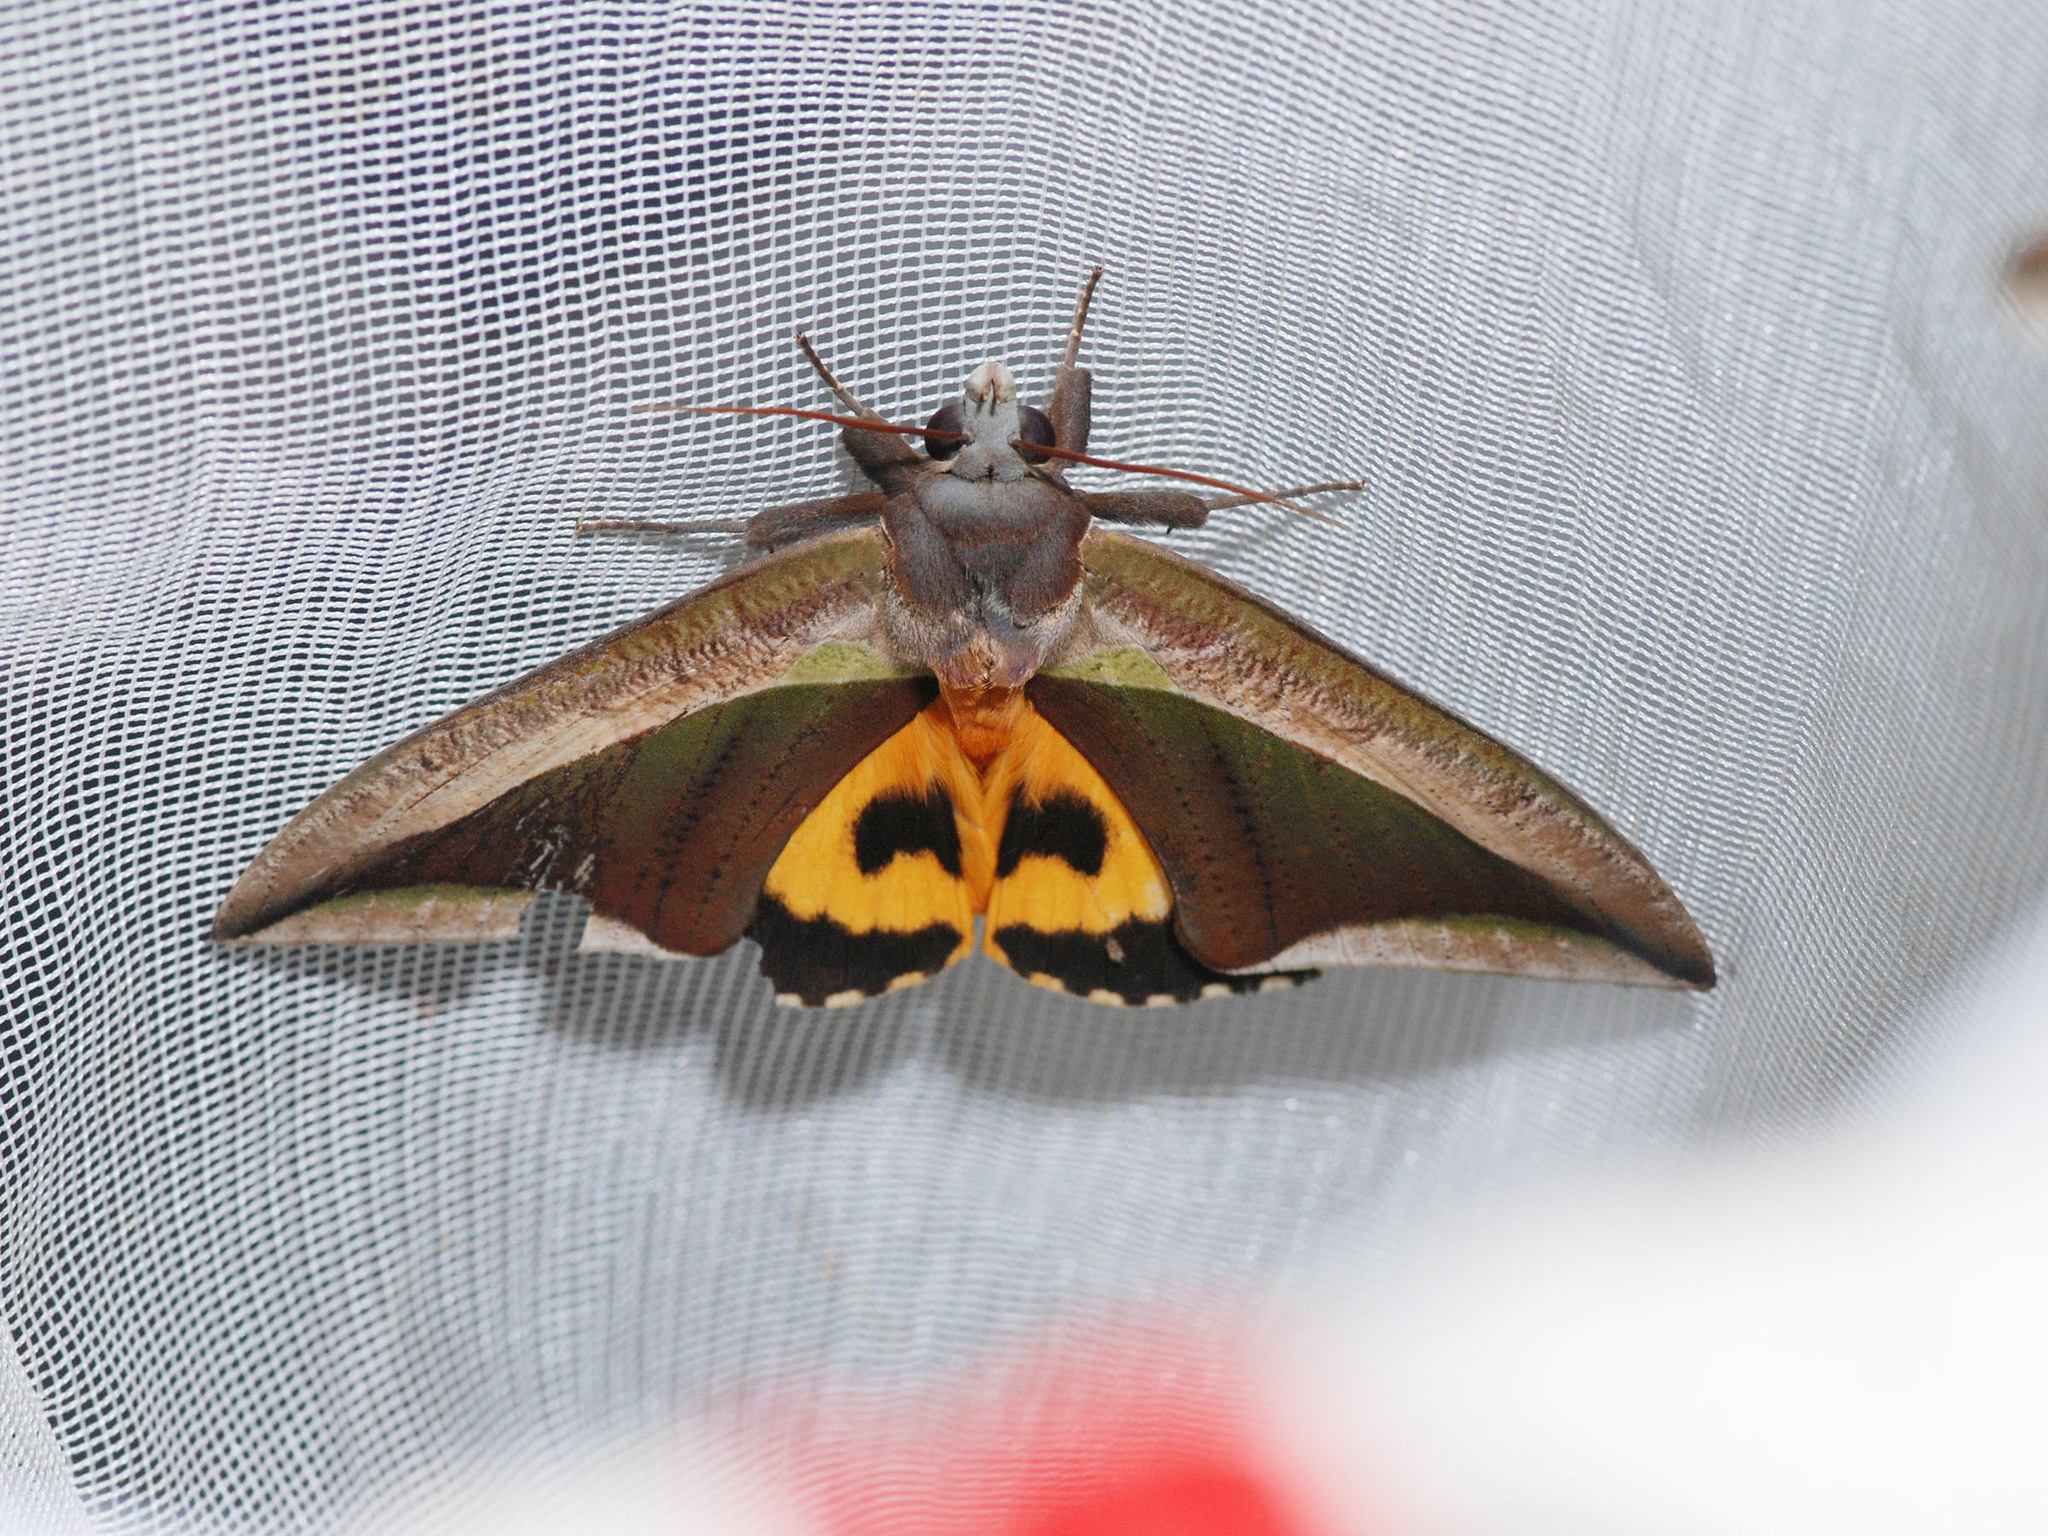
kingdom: Animalia
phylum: Arthropoda
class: Insecta
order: Lepidoptera
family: Erebidae
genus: Eudocima
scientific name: Eudocima dividens
